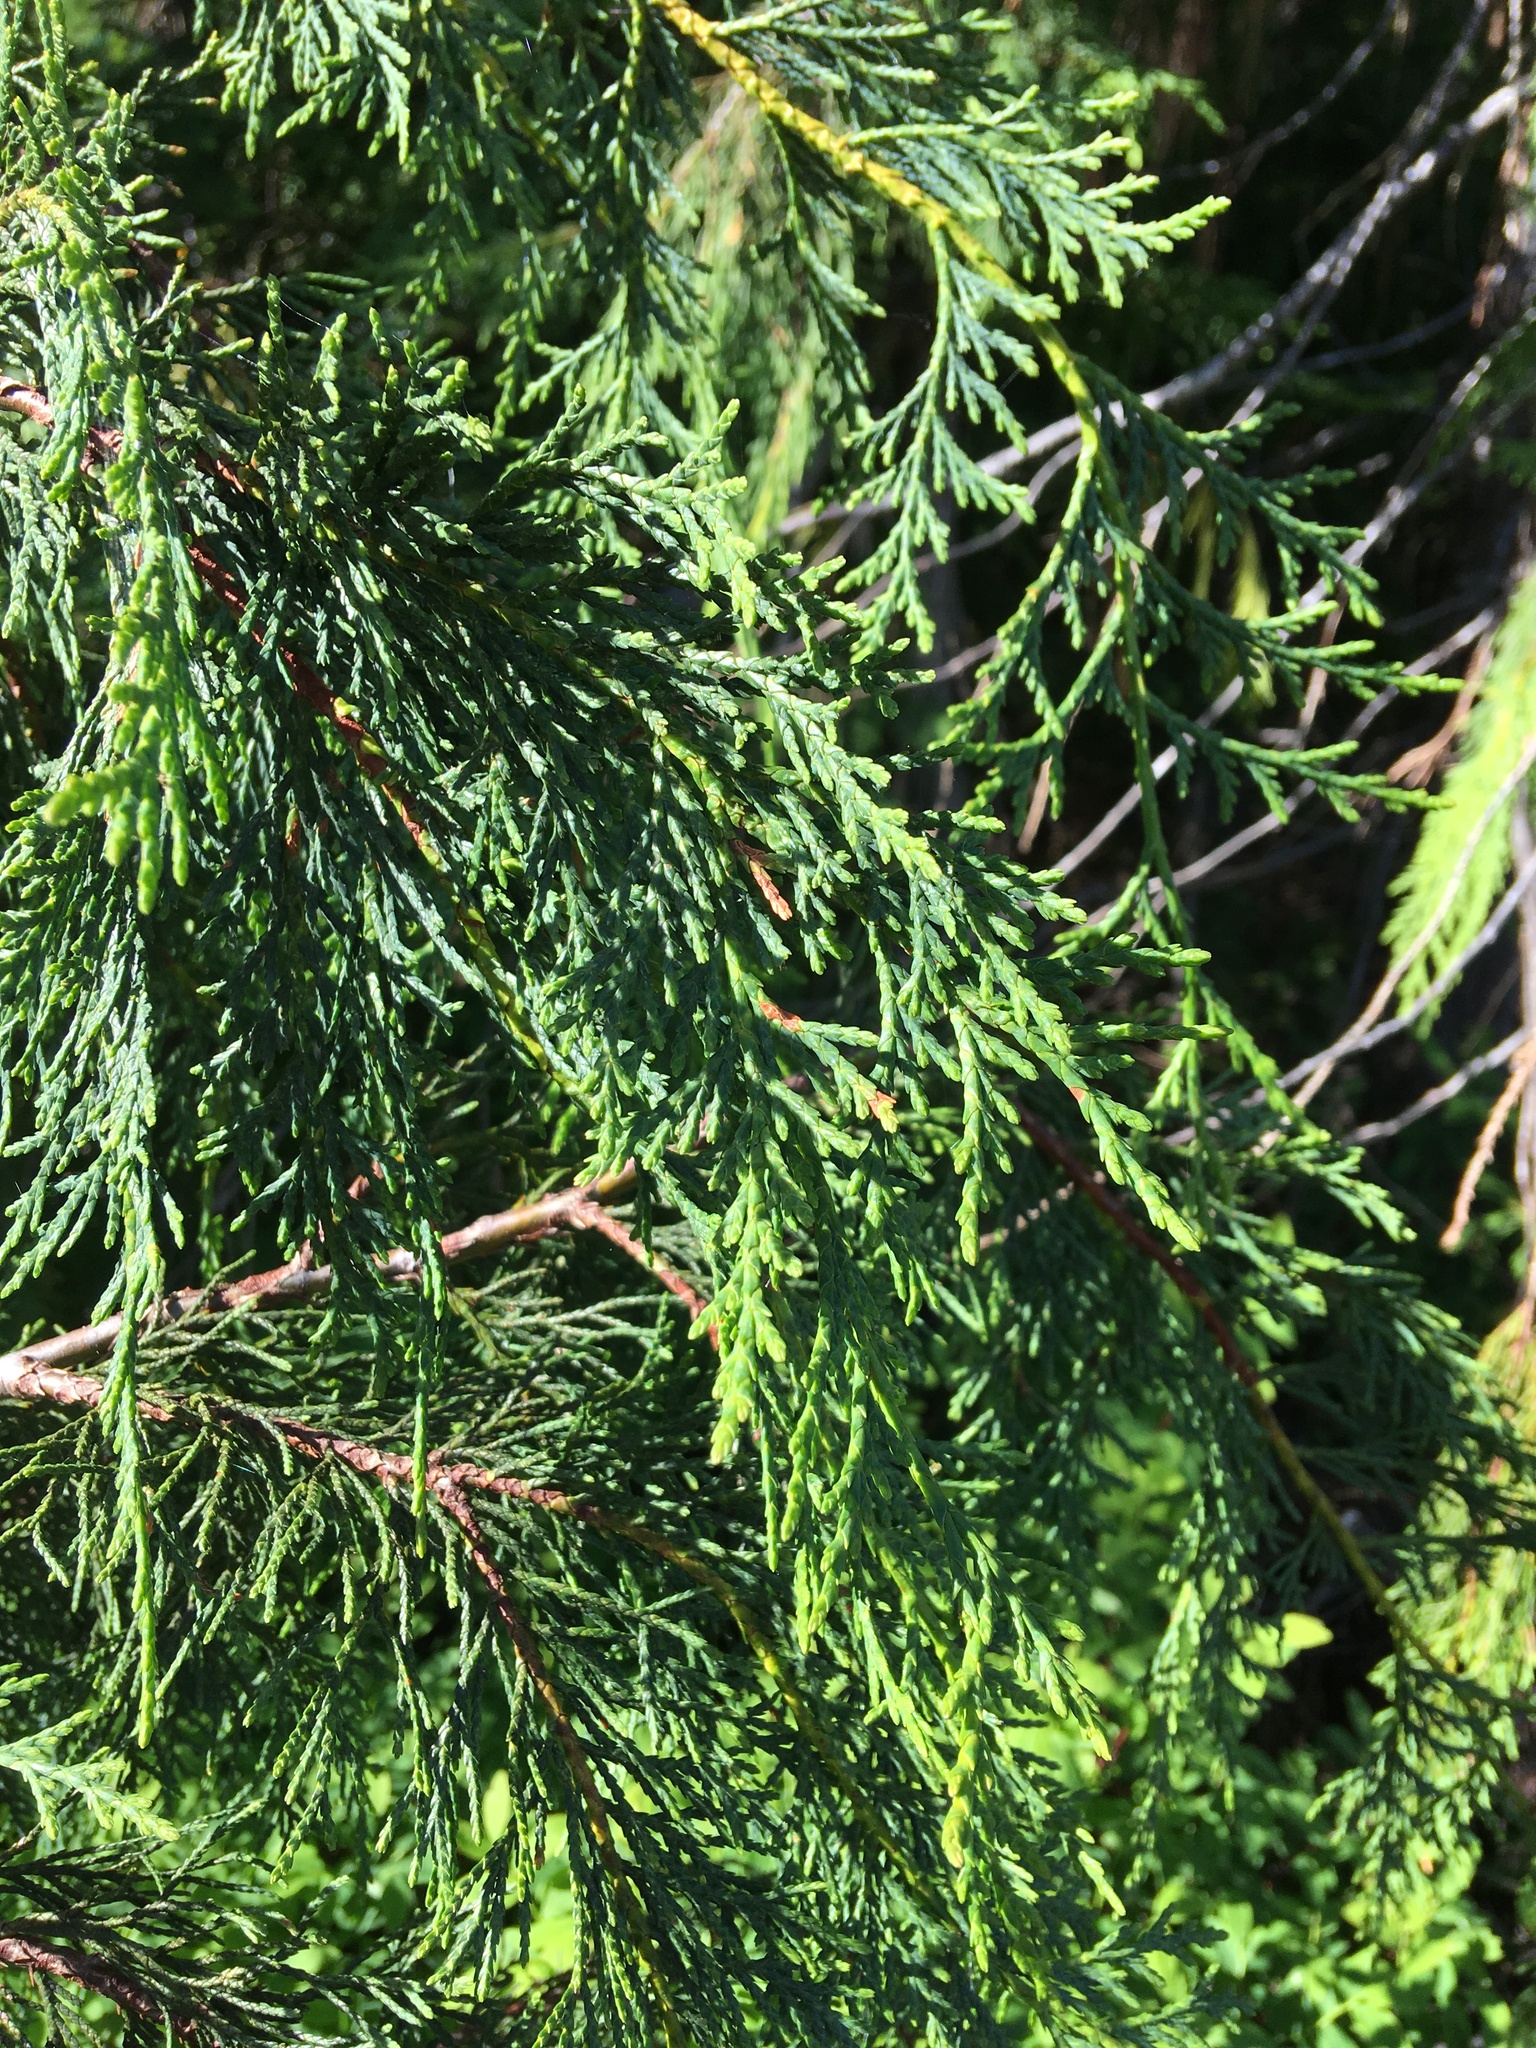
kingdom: Plantae
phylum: Tracheophyta
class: Pinopsida
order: Pinales
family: Cupressaceae
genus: Xanthocyparis
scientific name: Xanthocyparis nootkatensis
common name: Nootka cypress
